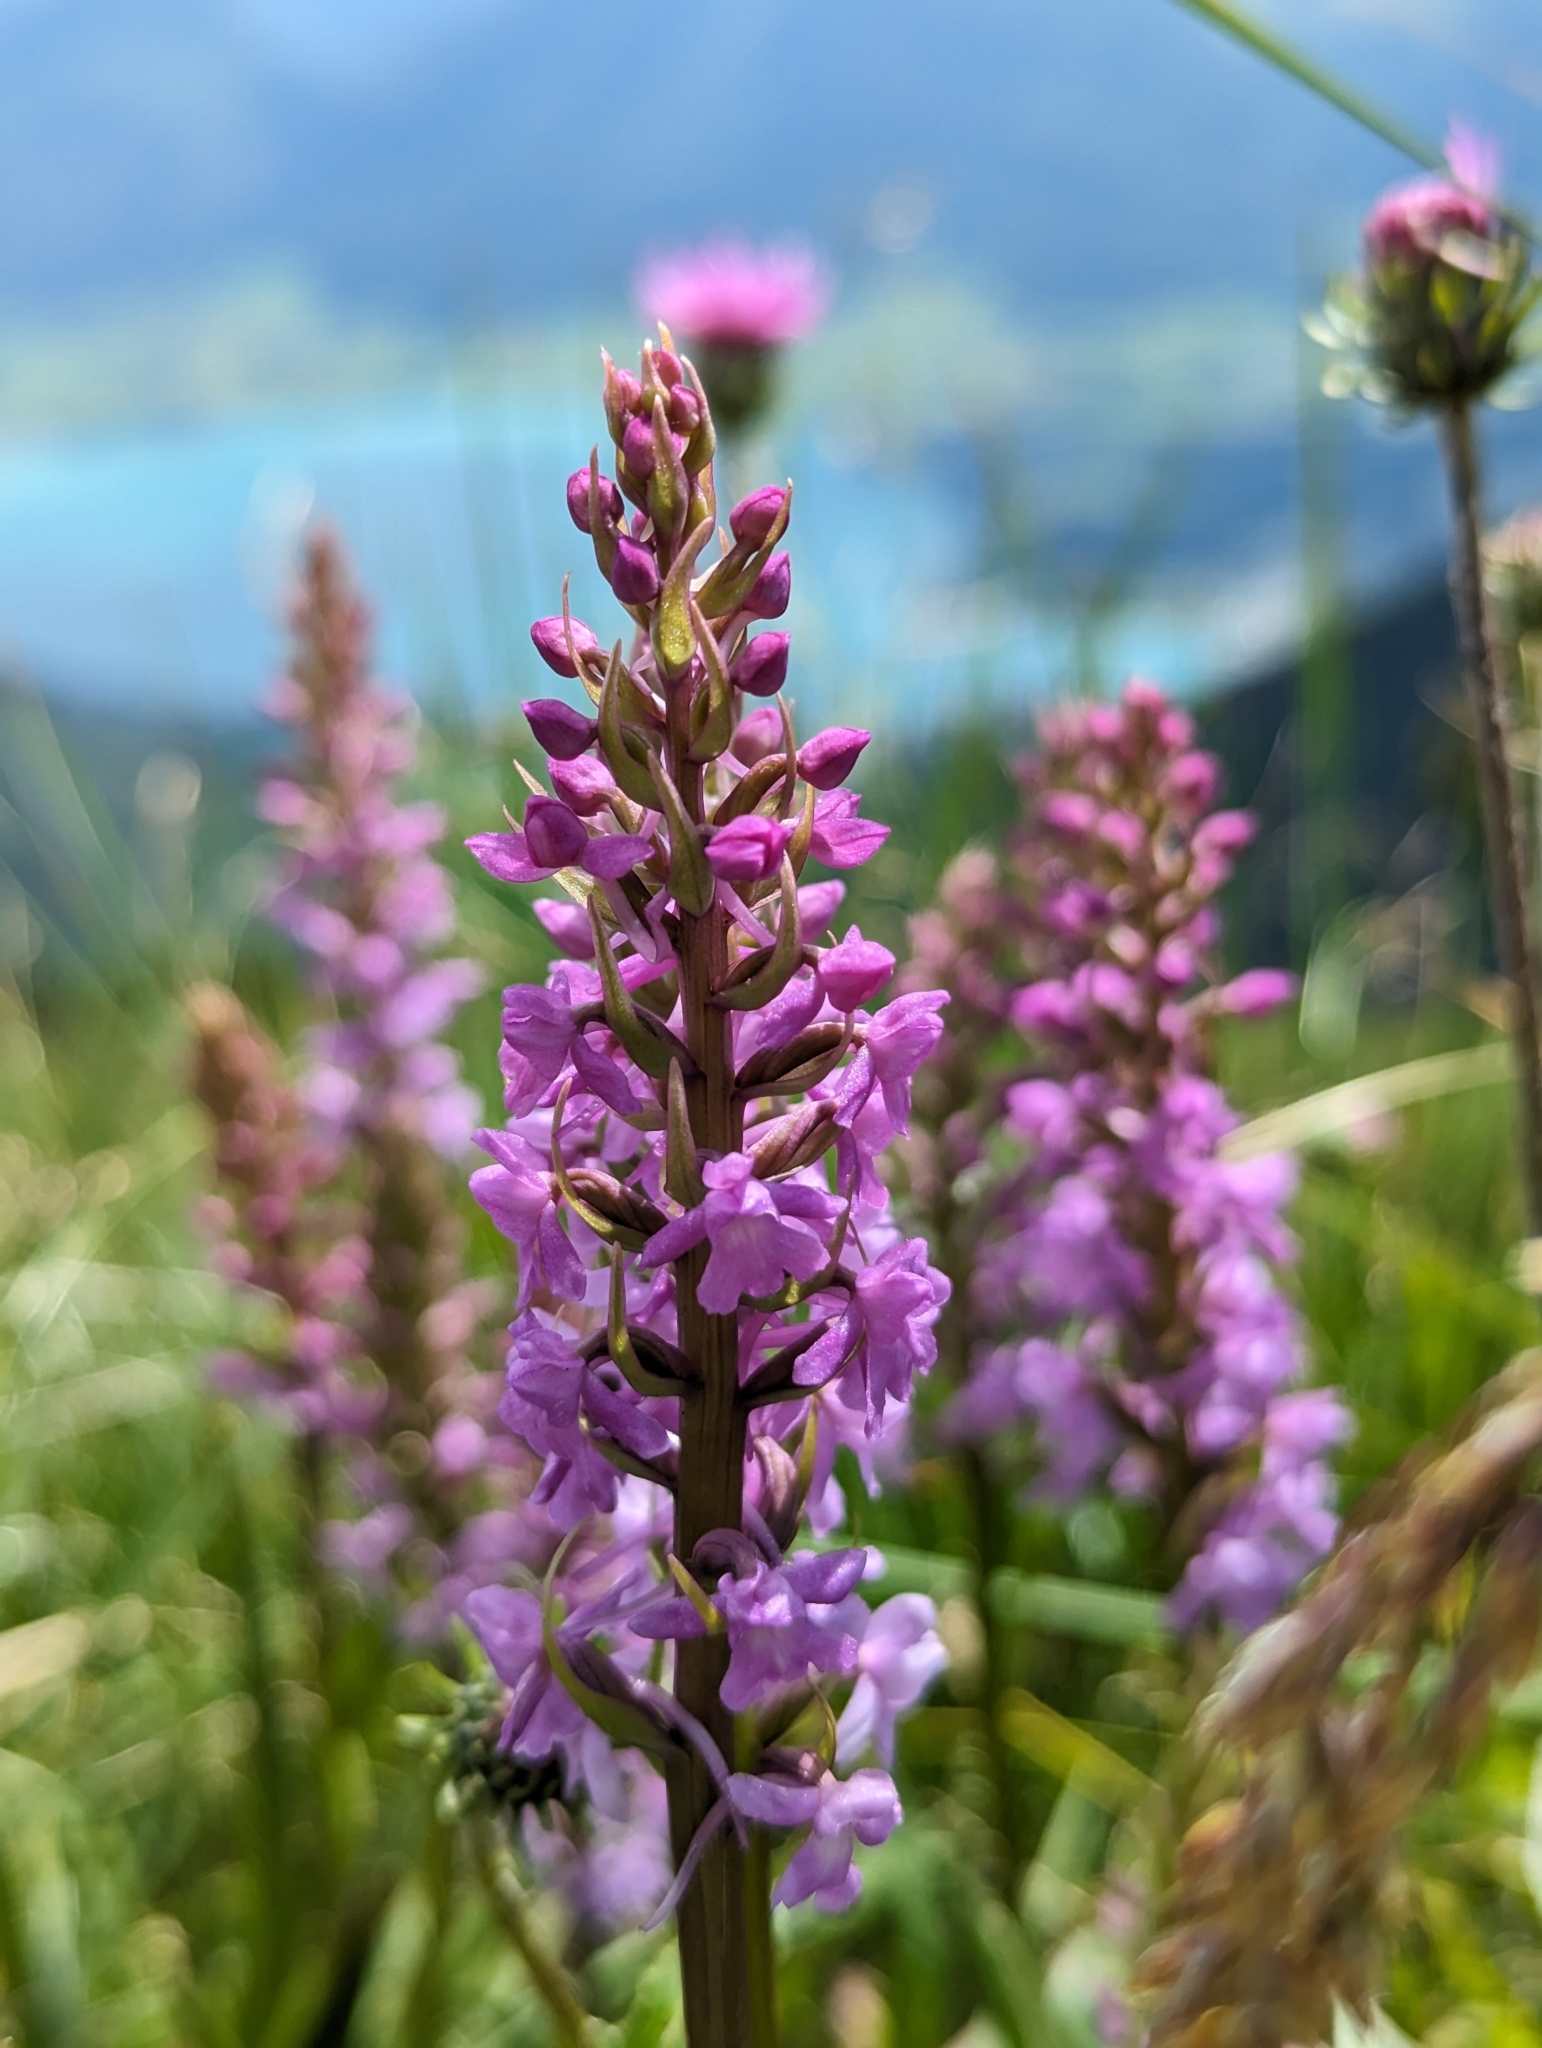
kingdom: Plantae
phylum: Tracheophyta
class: Liliopsida
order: Asparagales
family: Orchidaceae
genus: Gymnadenia
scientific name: Gymnadenia conopsea
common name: Fragrant orchid
